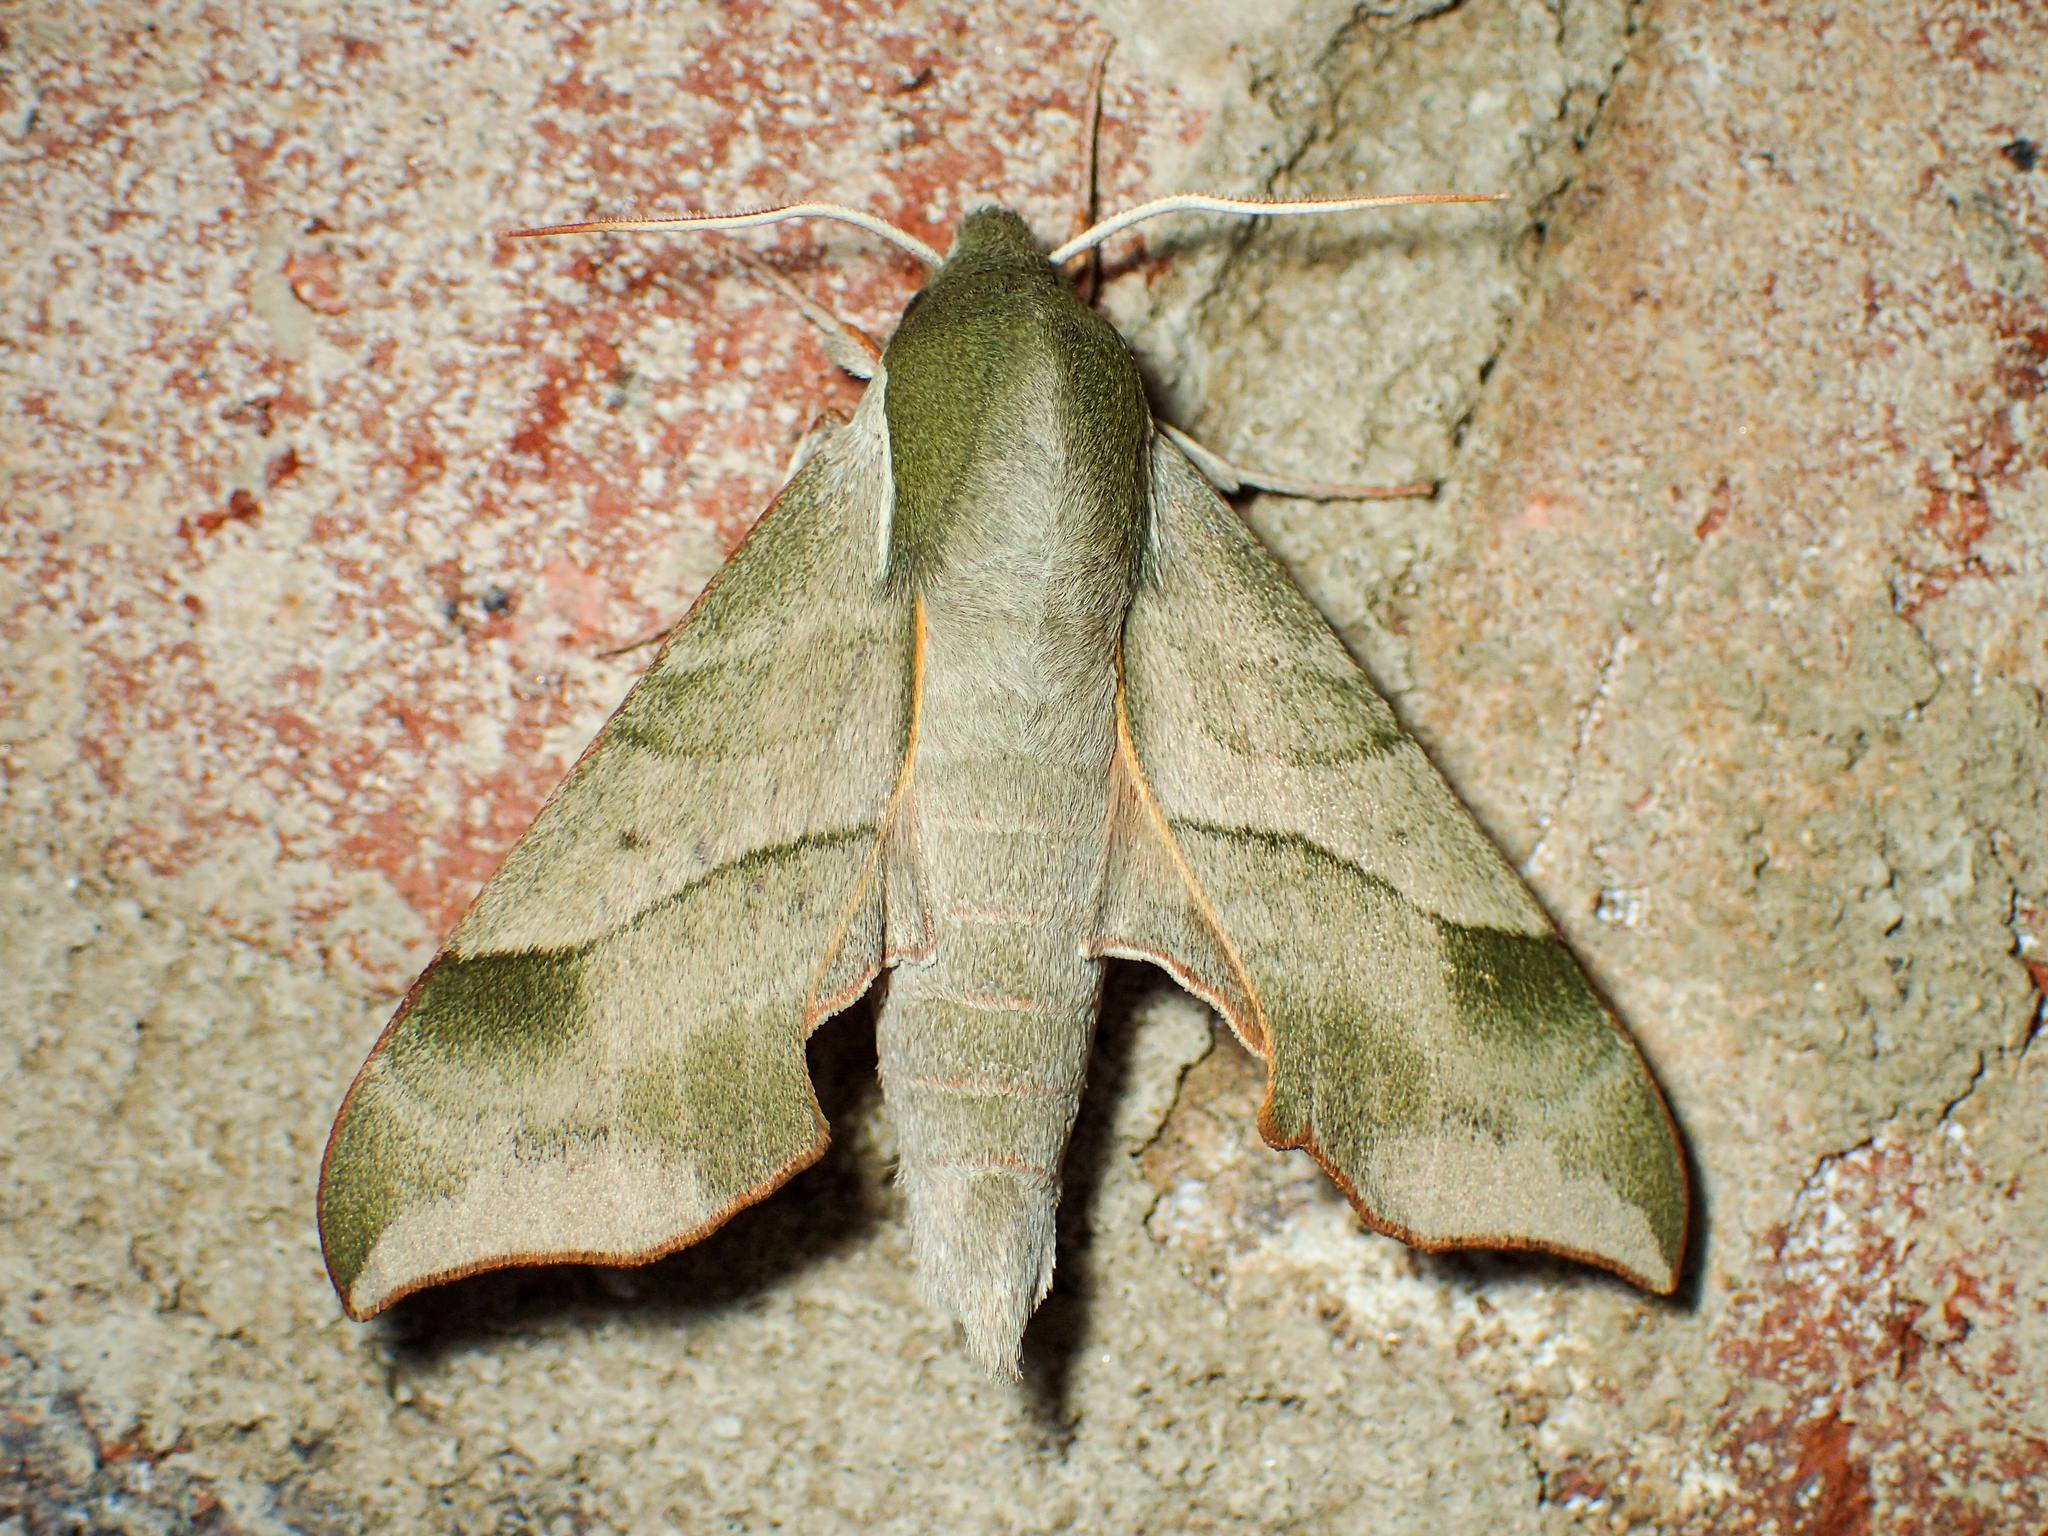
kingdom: Animalia
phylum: Arthropoda
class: Insecta
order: Lepidoptera
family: Sphingidae
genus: Darapsa
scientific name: Darapsa myron
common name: Hog sphinx
